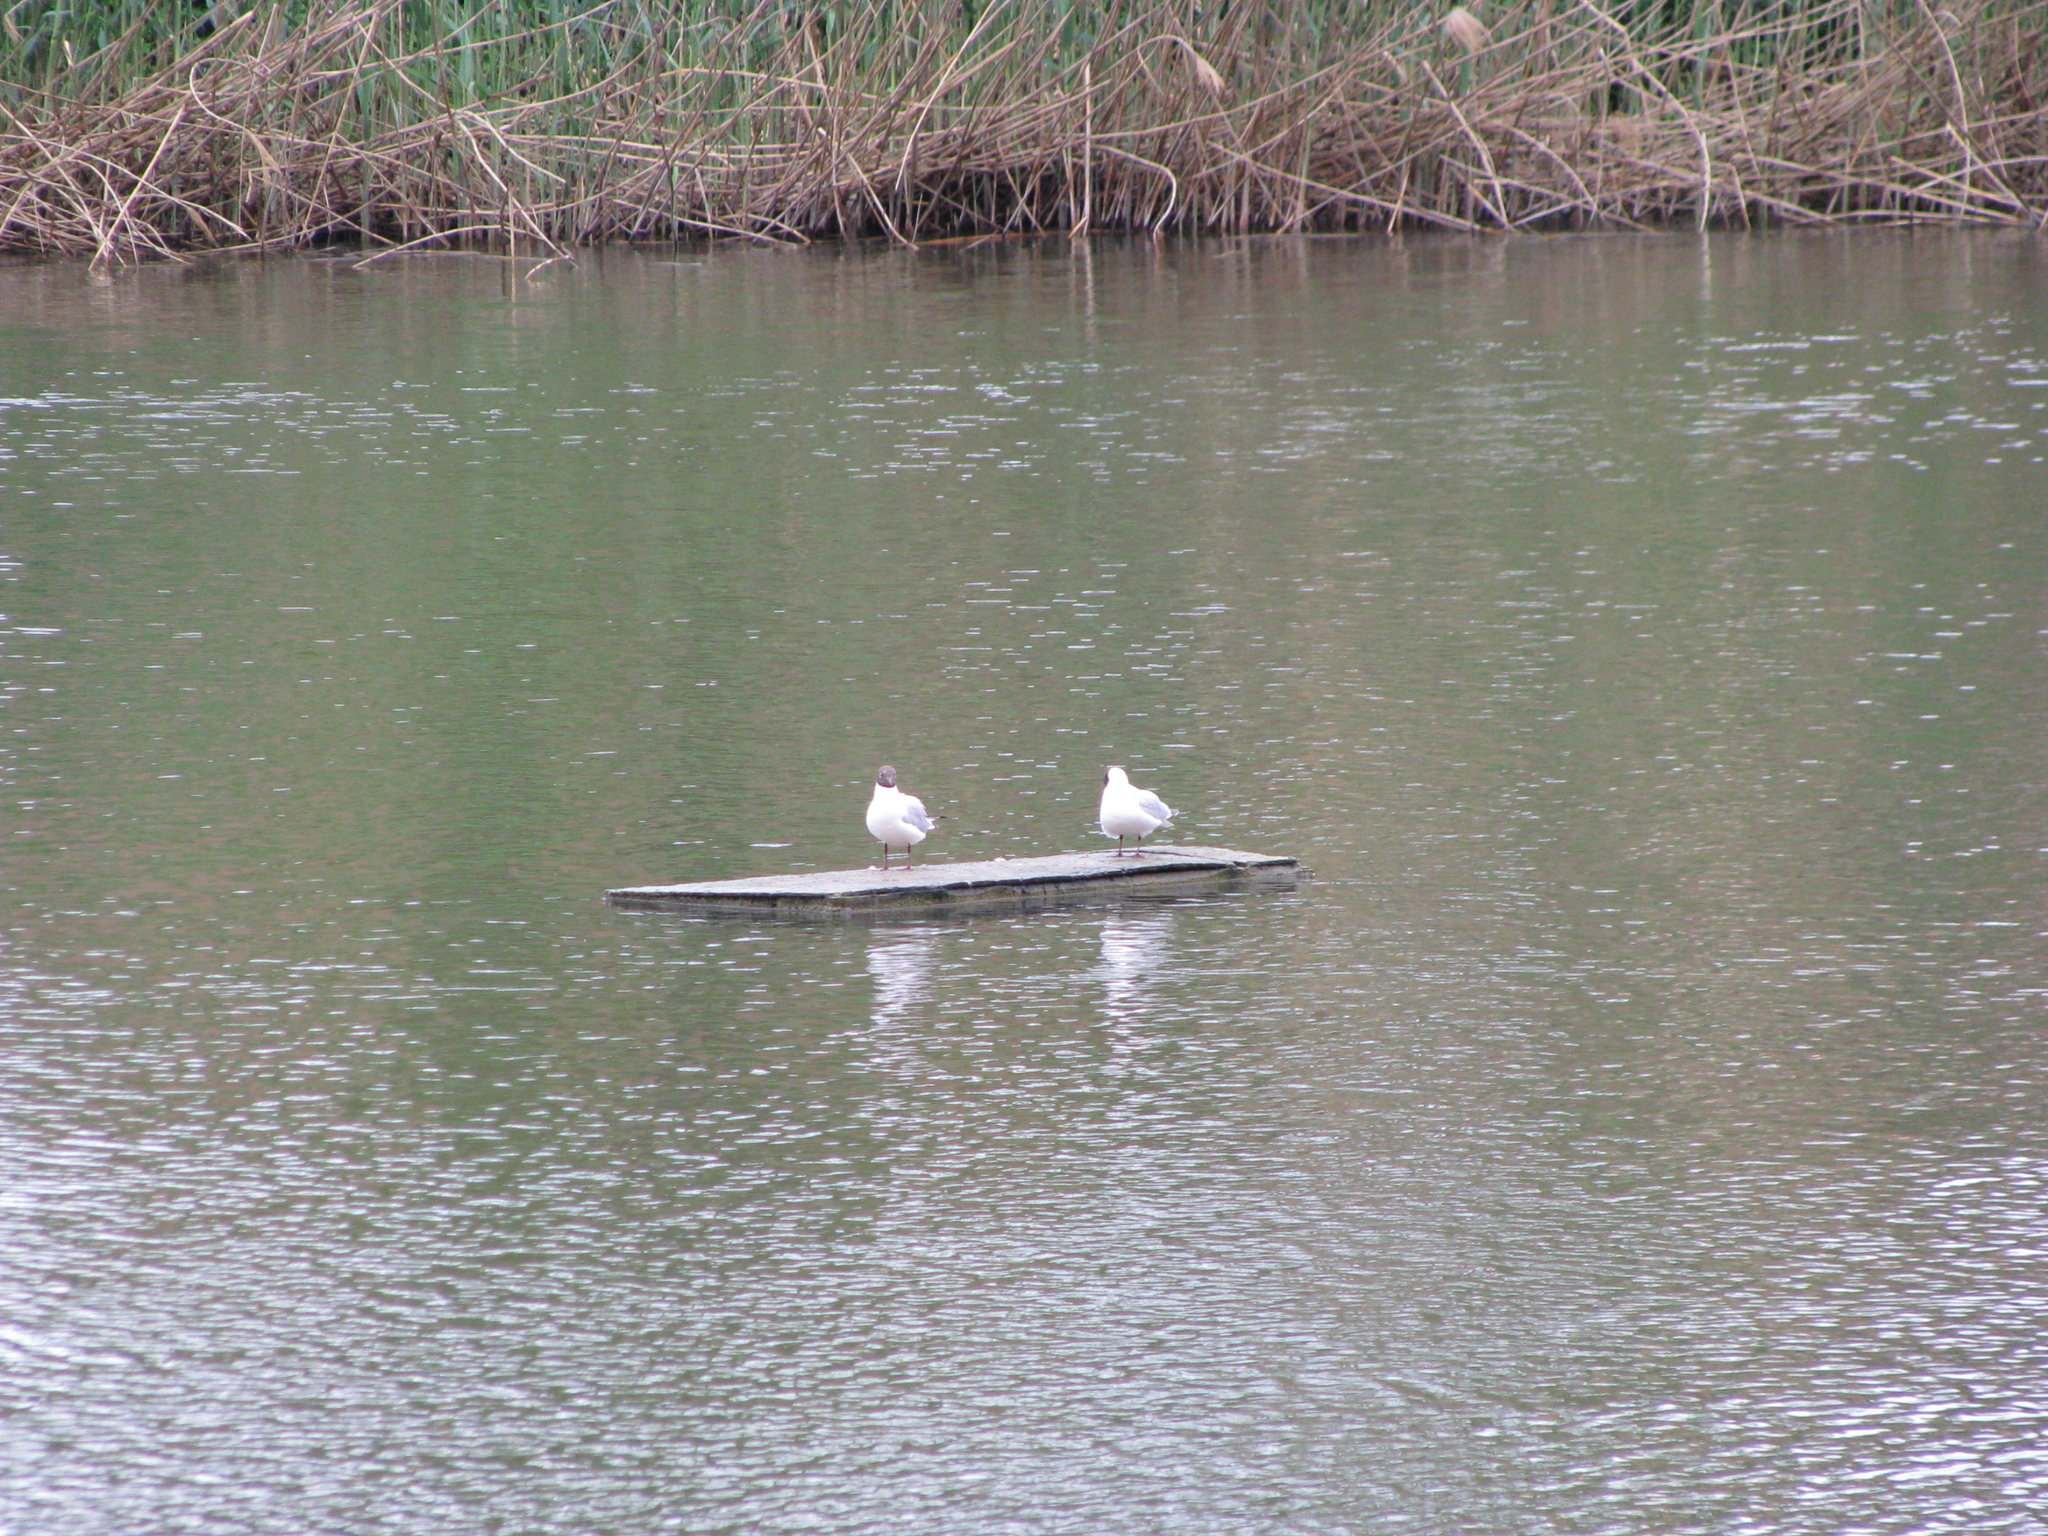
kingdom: Animalia
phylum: Chordata
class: Aves
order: Charadriiformes
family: Laridae
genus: Chroicocephalus
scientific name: Chroicocephalus ridibundus
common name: Black-headed gull
